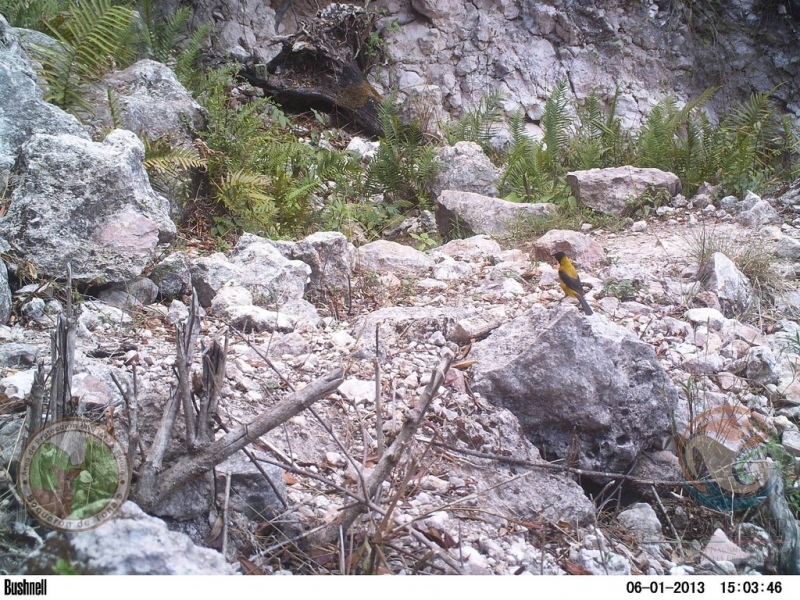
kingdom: Animalia
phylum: Chordata
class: Aves
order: Passeriformes
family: Icteridae
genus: Icterus
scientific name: Icterus graduacauda
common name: Audubon's oriole
